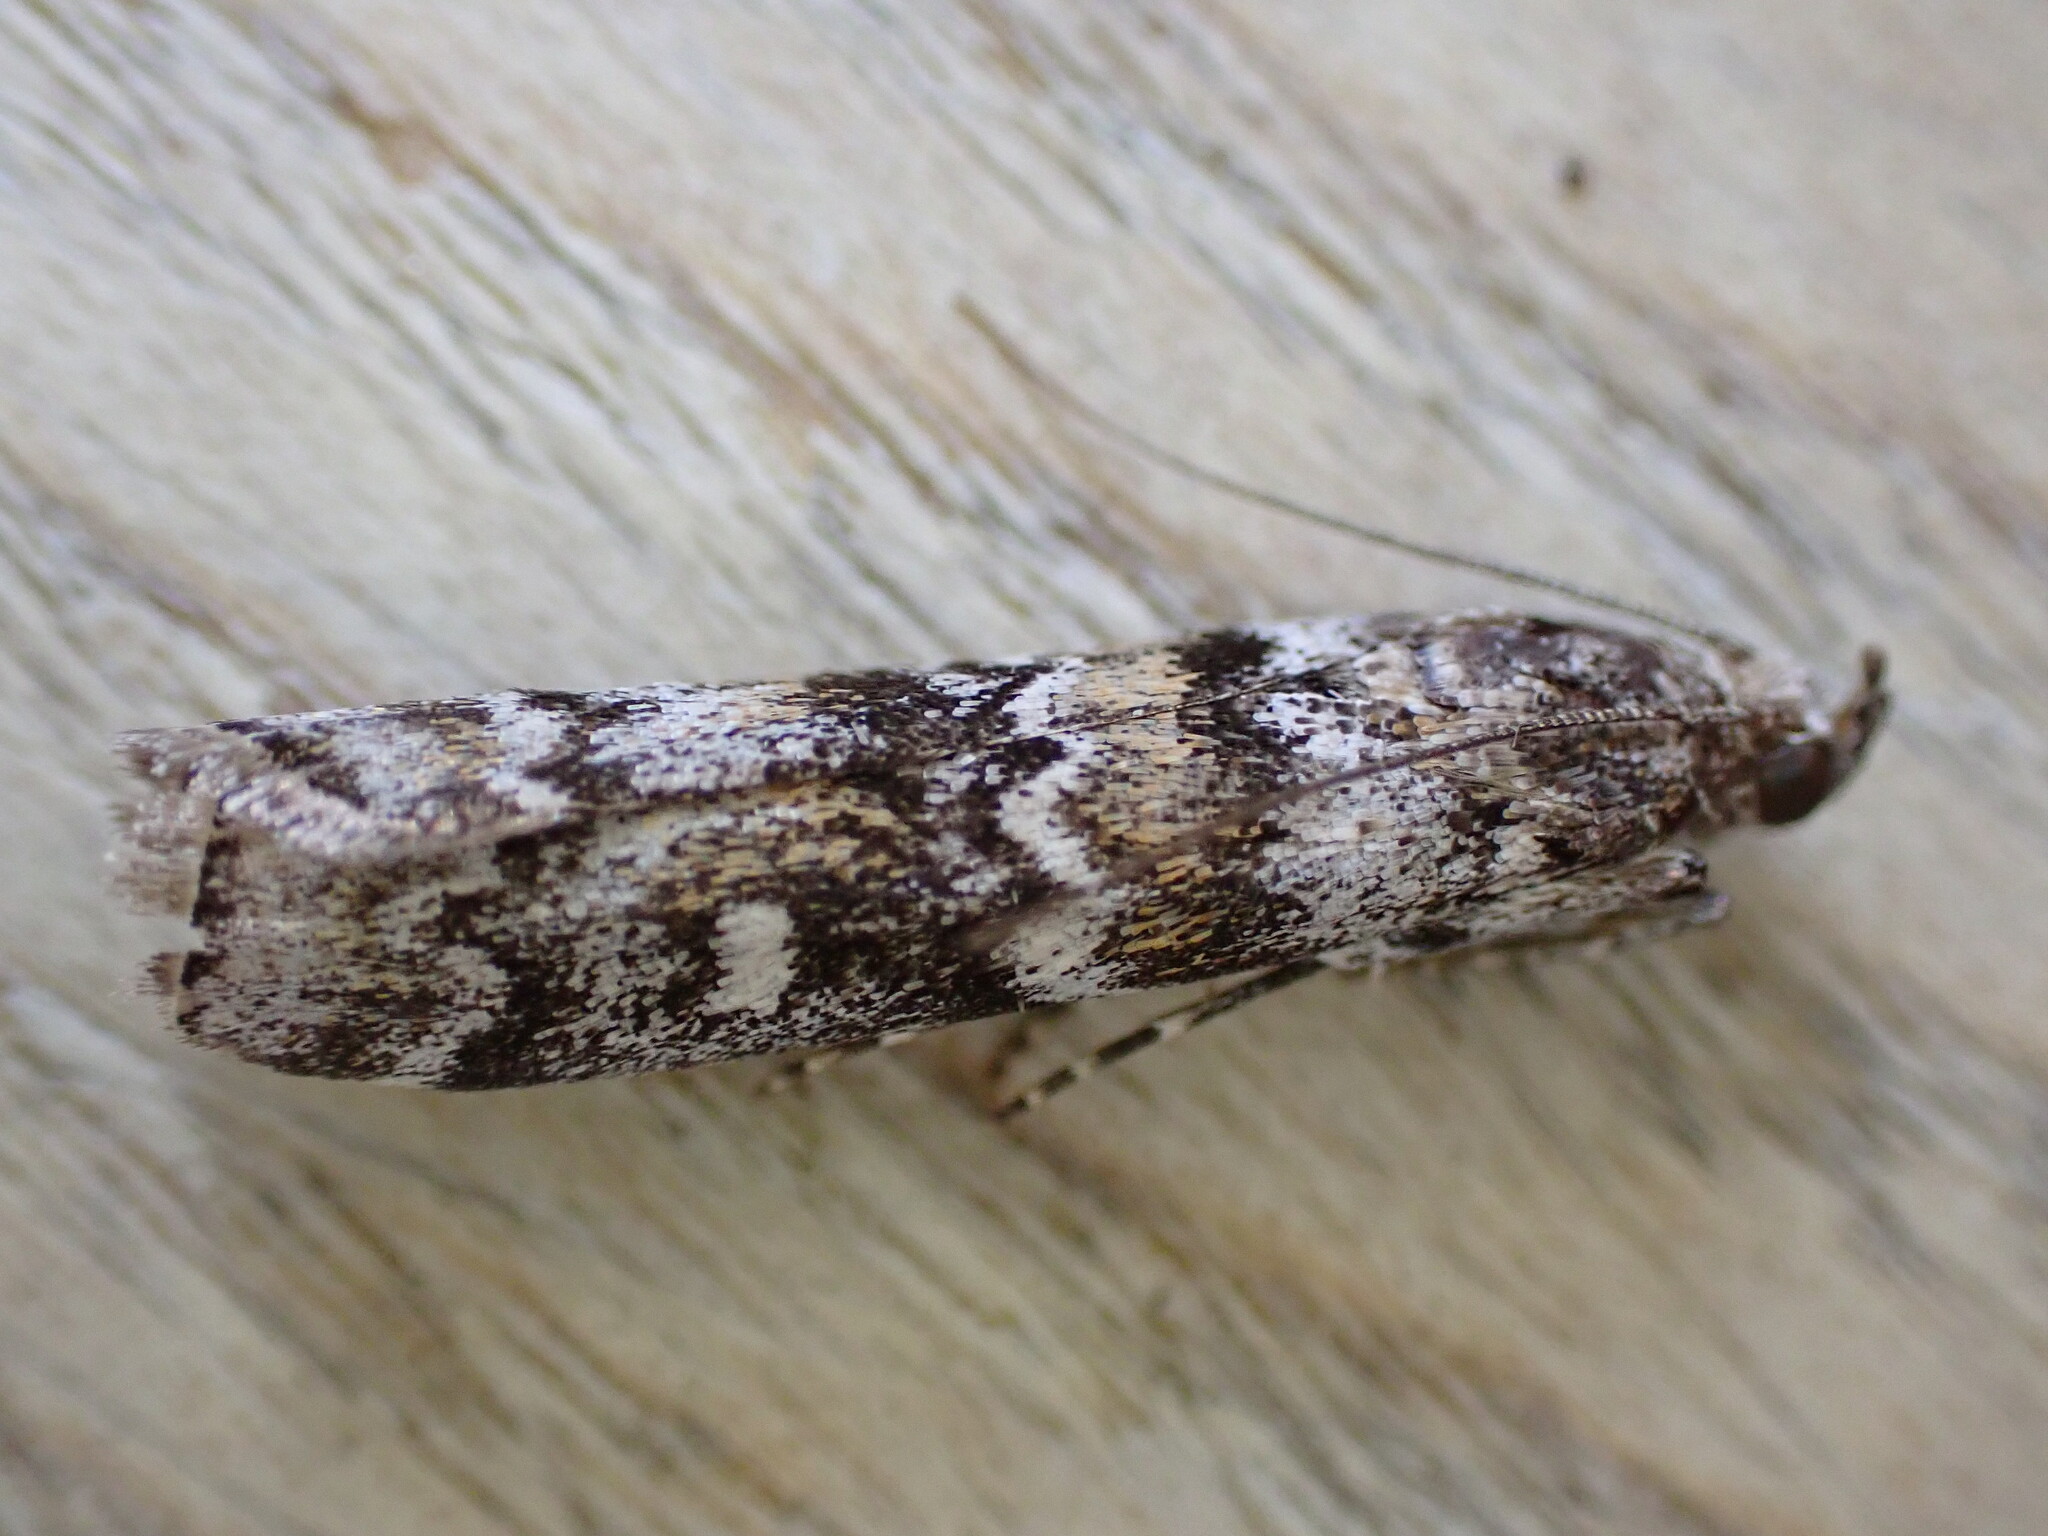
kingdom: Animalia
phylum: Arthropoda
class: Insecta
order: Lepidoptera
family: Pyralidae
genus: Dioryctria
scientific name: Dioryctria abietella
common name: Dark pine knot-horn
